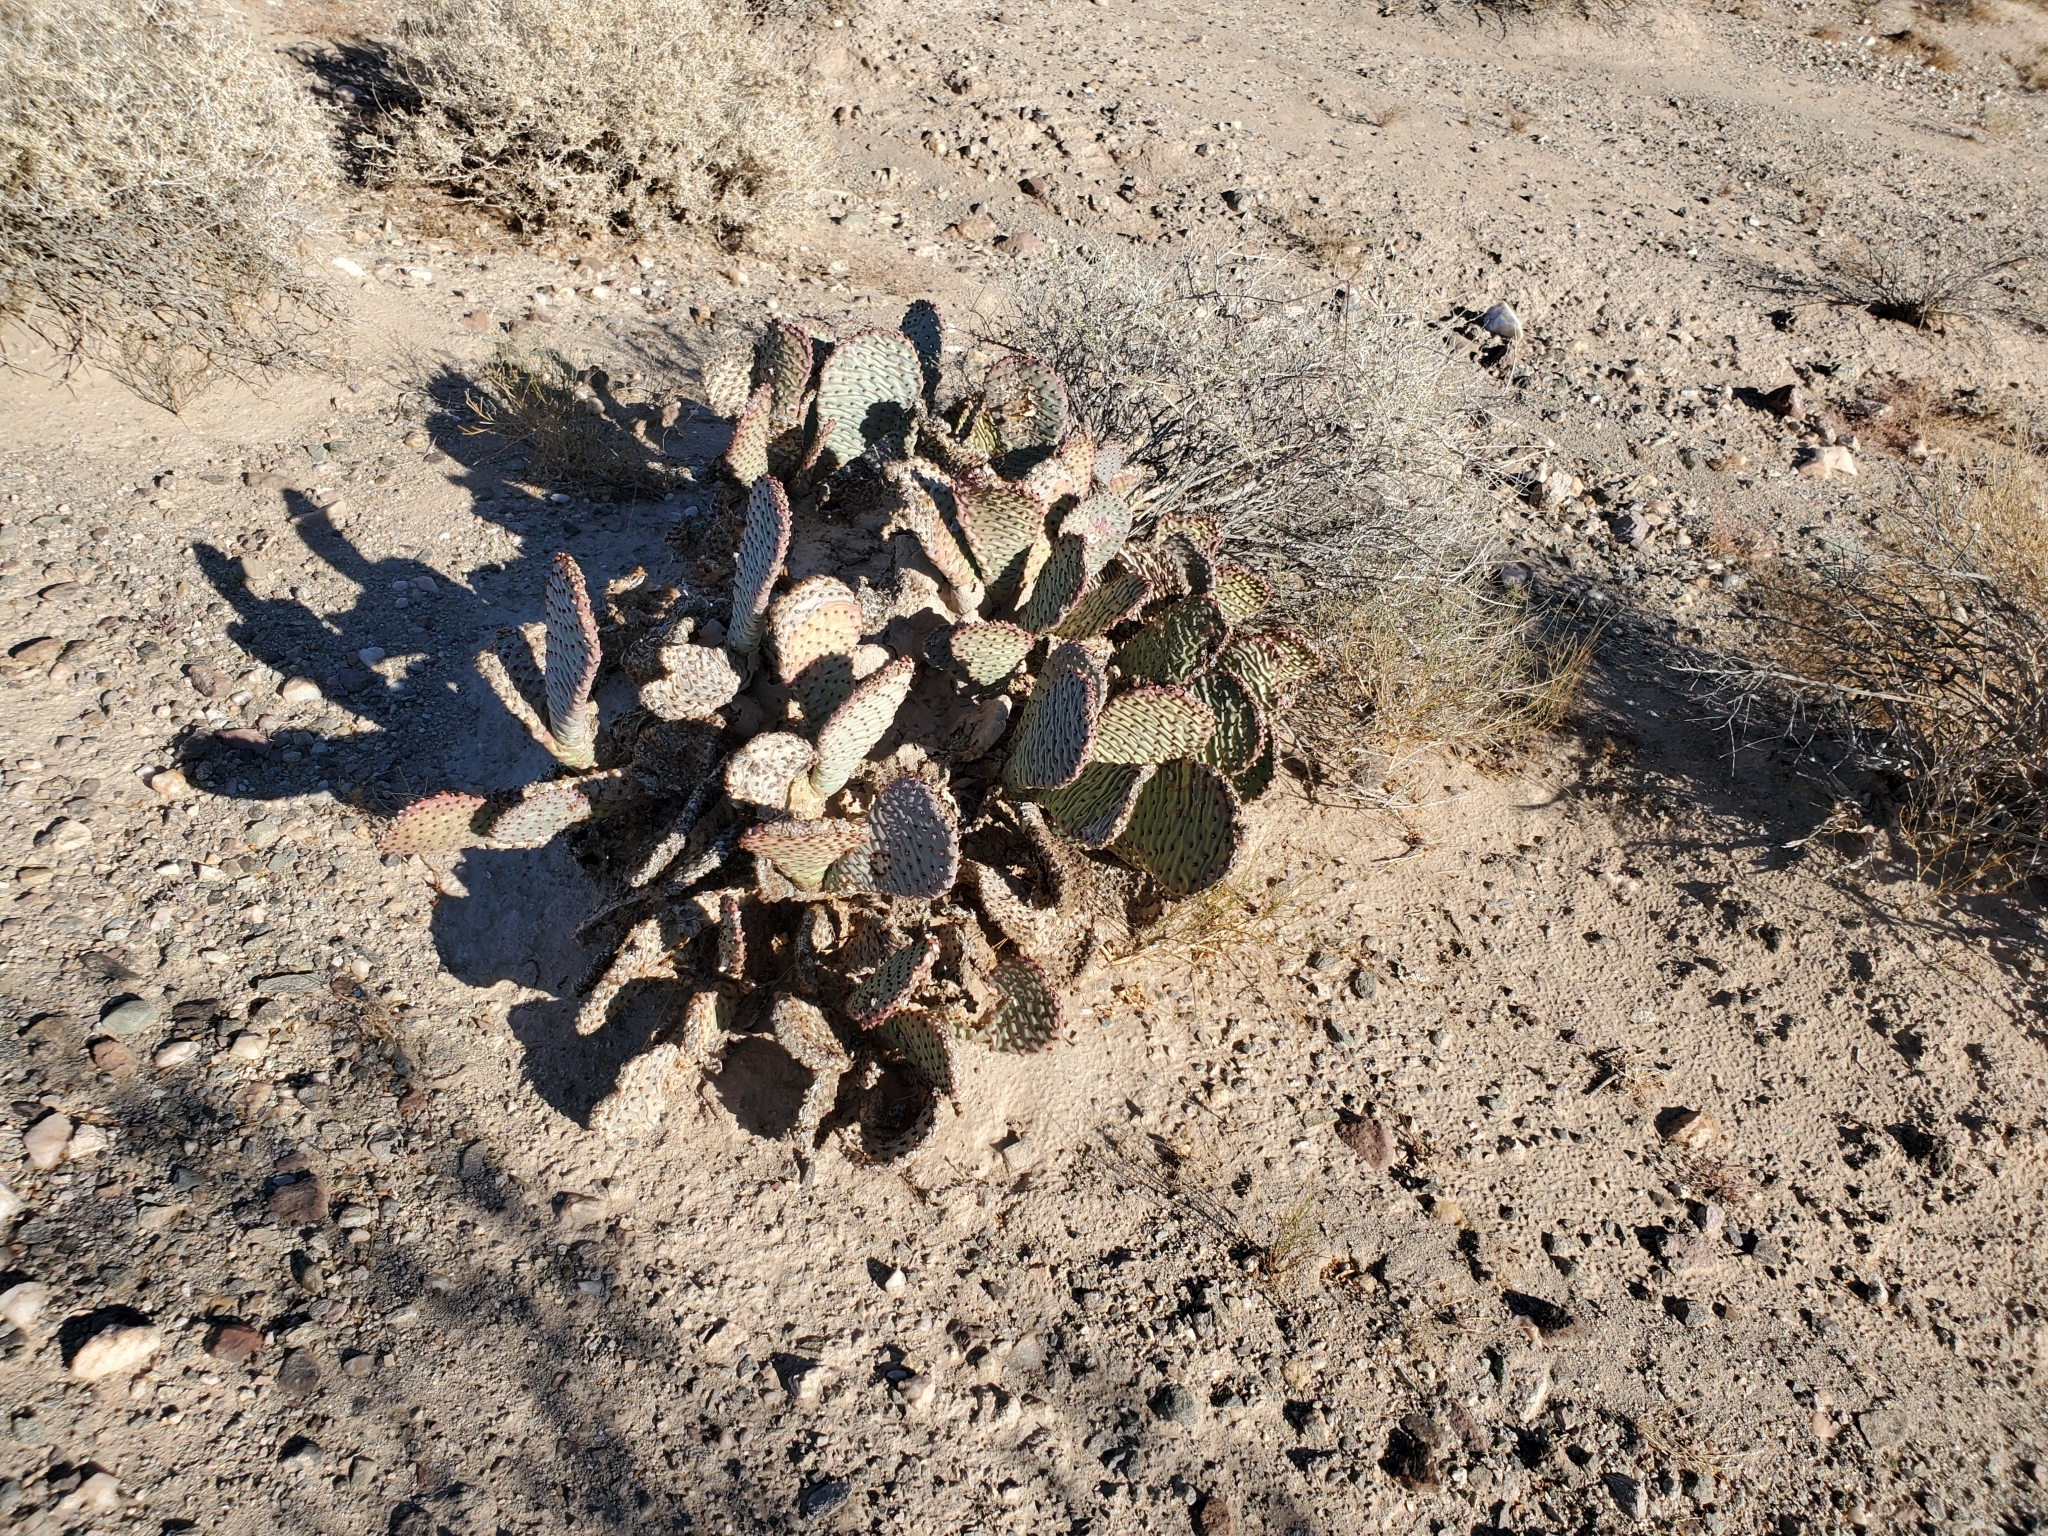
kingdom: Plantae
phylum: Tracheophyta
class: Magnoliopsida
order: Caryophyllales
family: Cactaceae
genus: Opuntia
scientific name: Opuntia basilaris
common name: Beavertail prickly-pear
